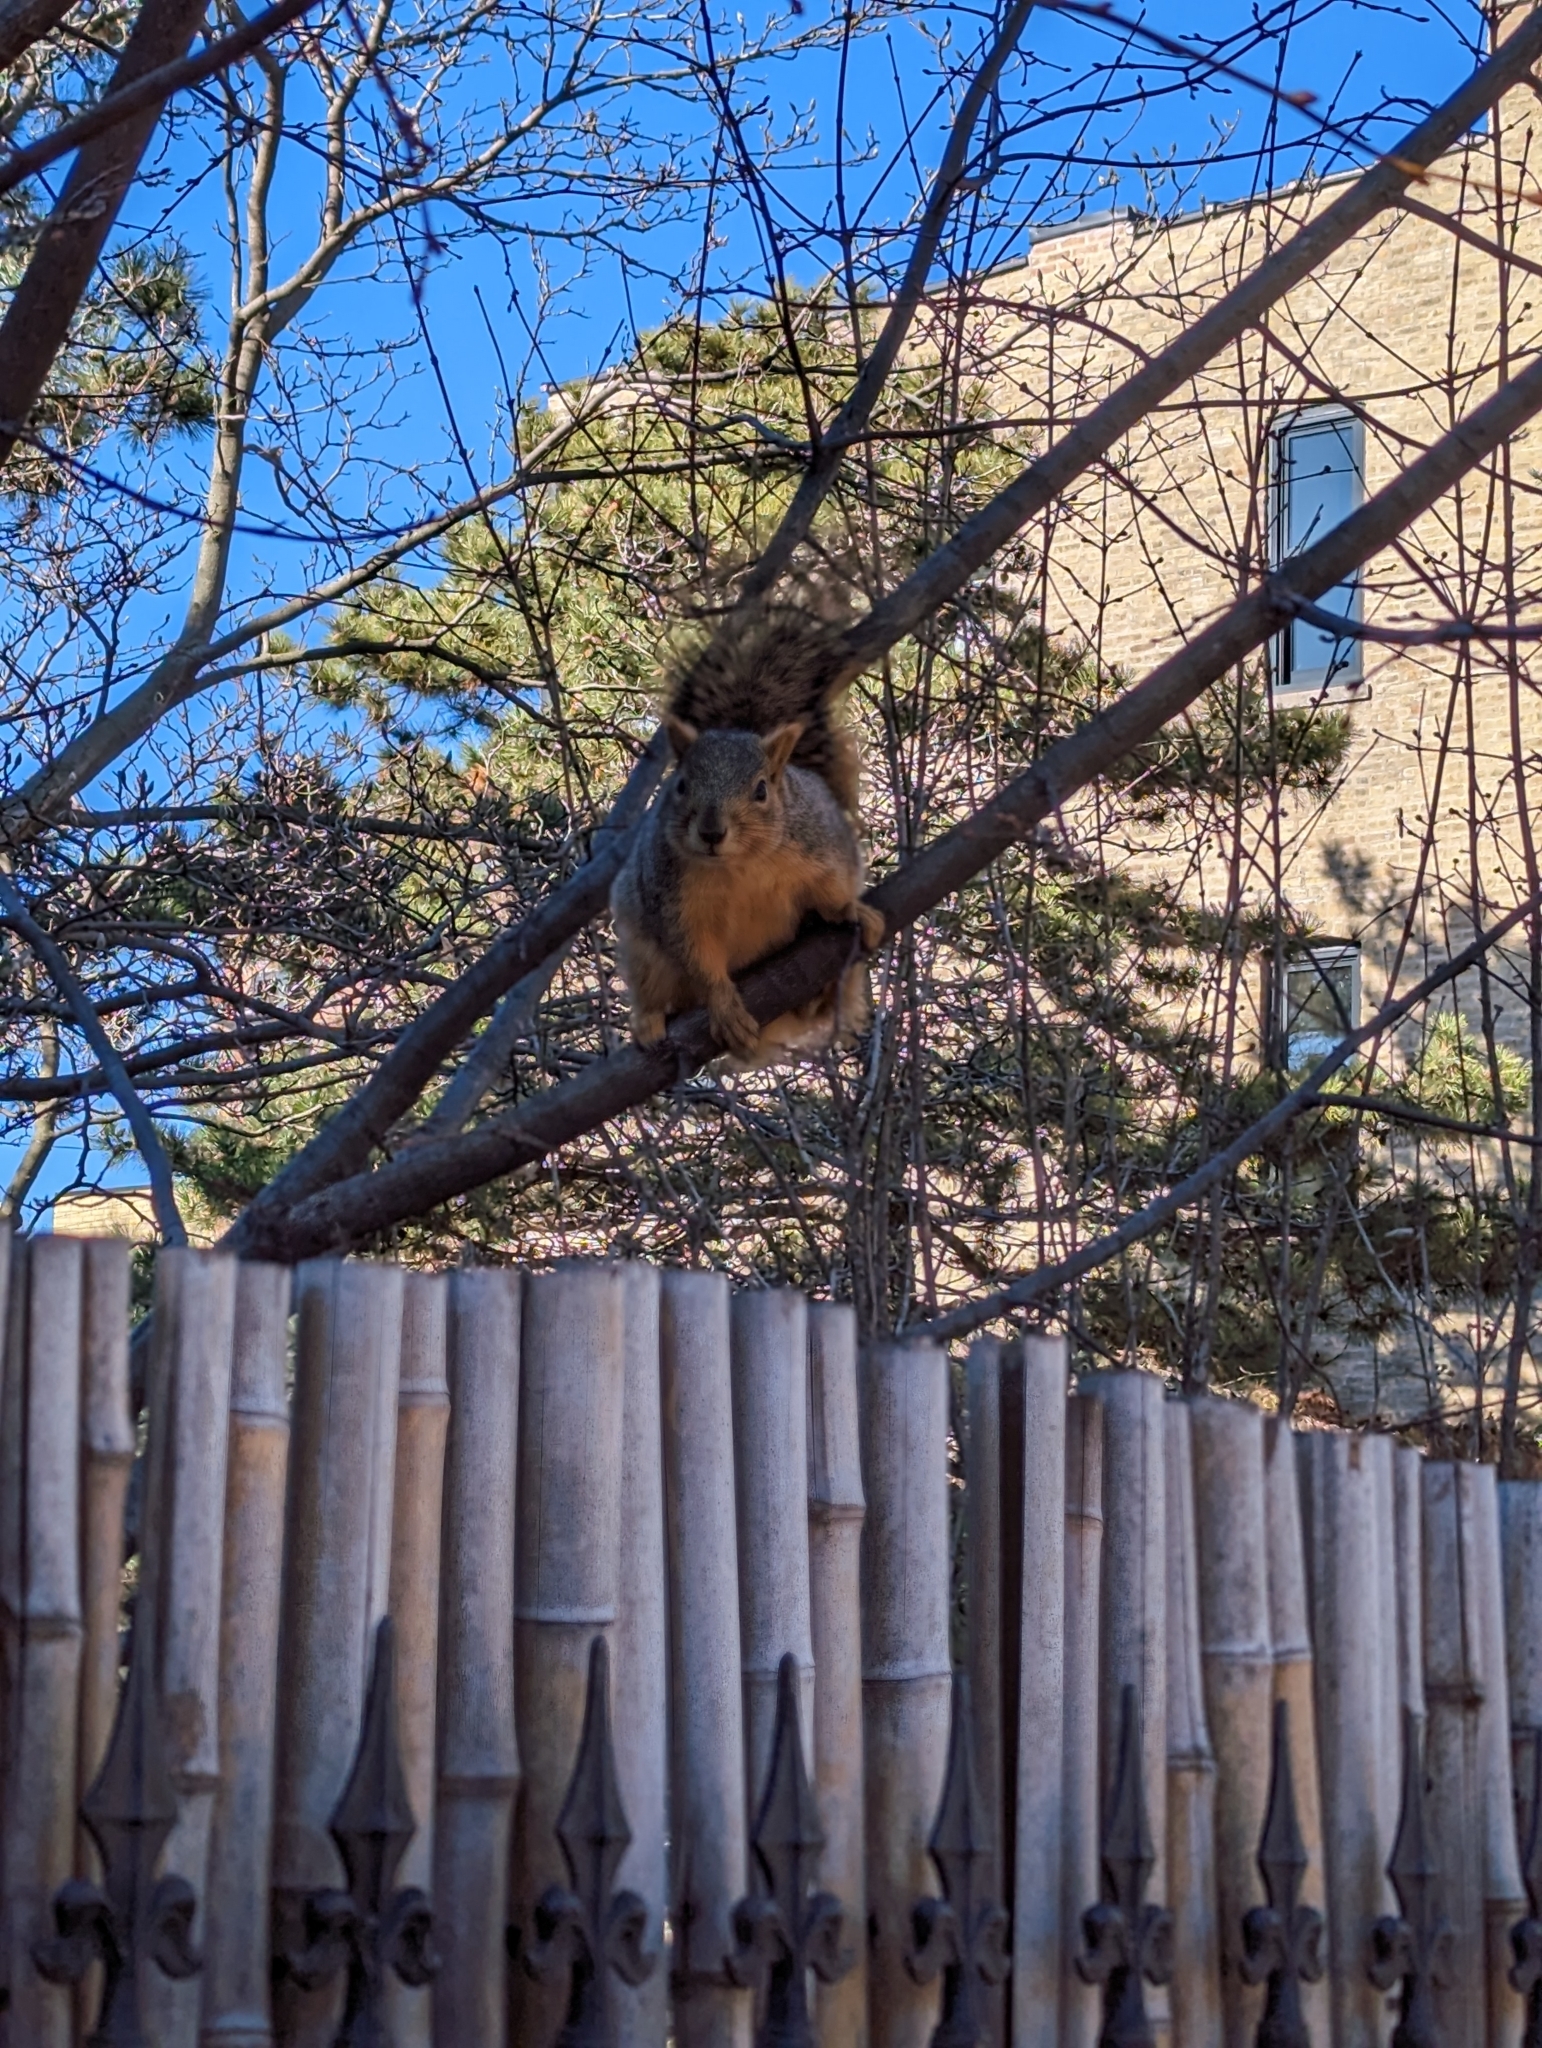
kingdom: Animalia
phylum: Chordata
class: Mammalia
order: Rodentia
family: Sciuridae
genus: Sciurus
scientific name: Sciurus niger
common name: Fox squirrel
